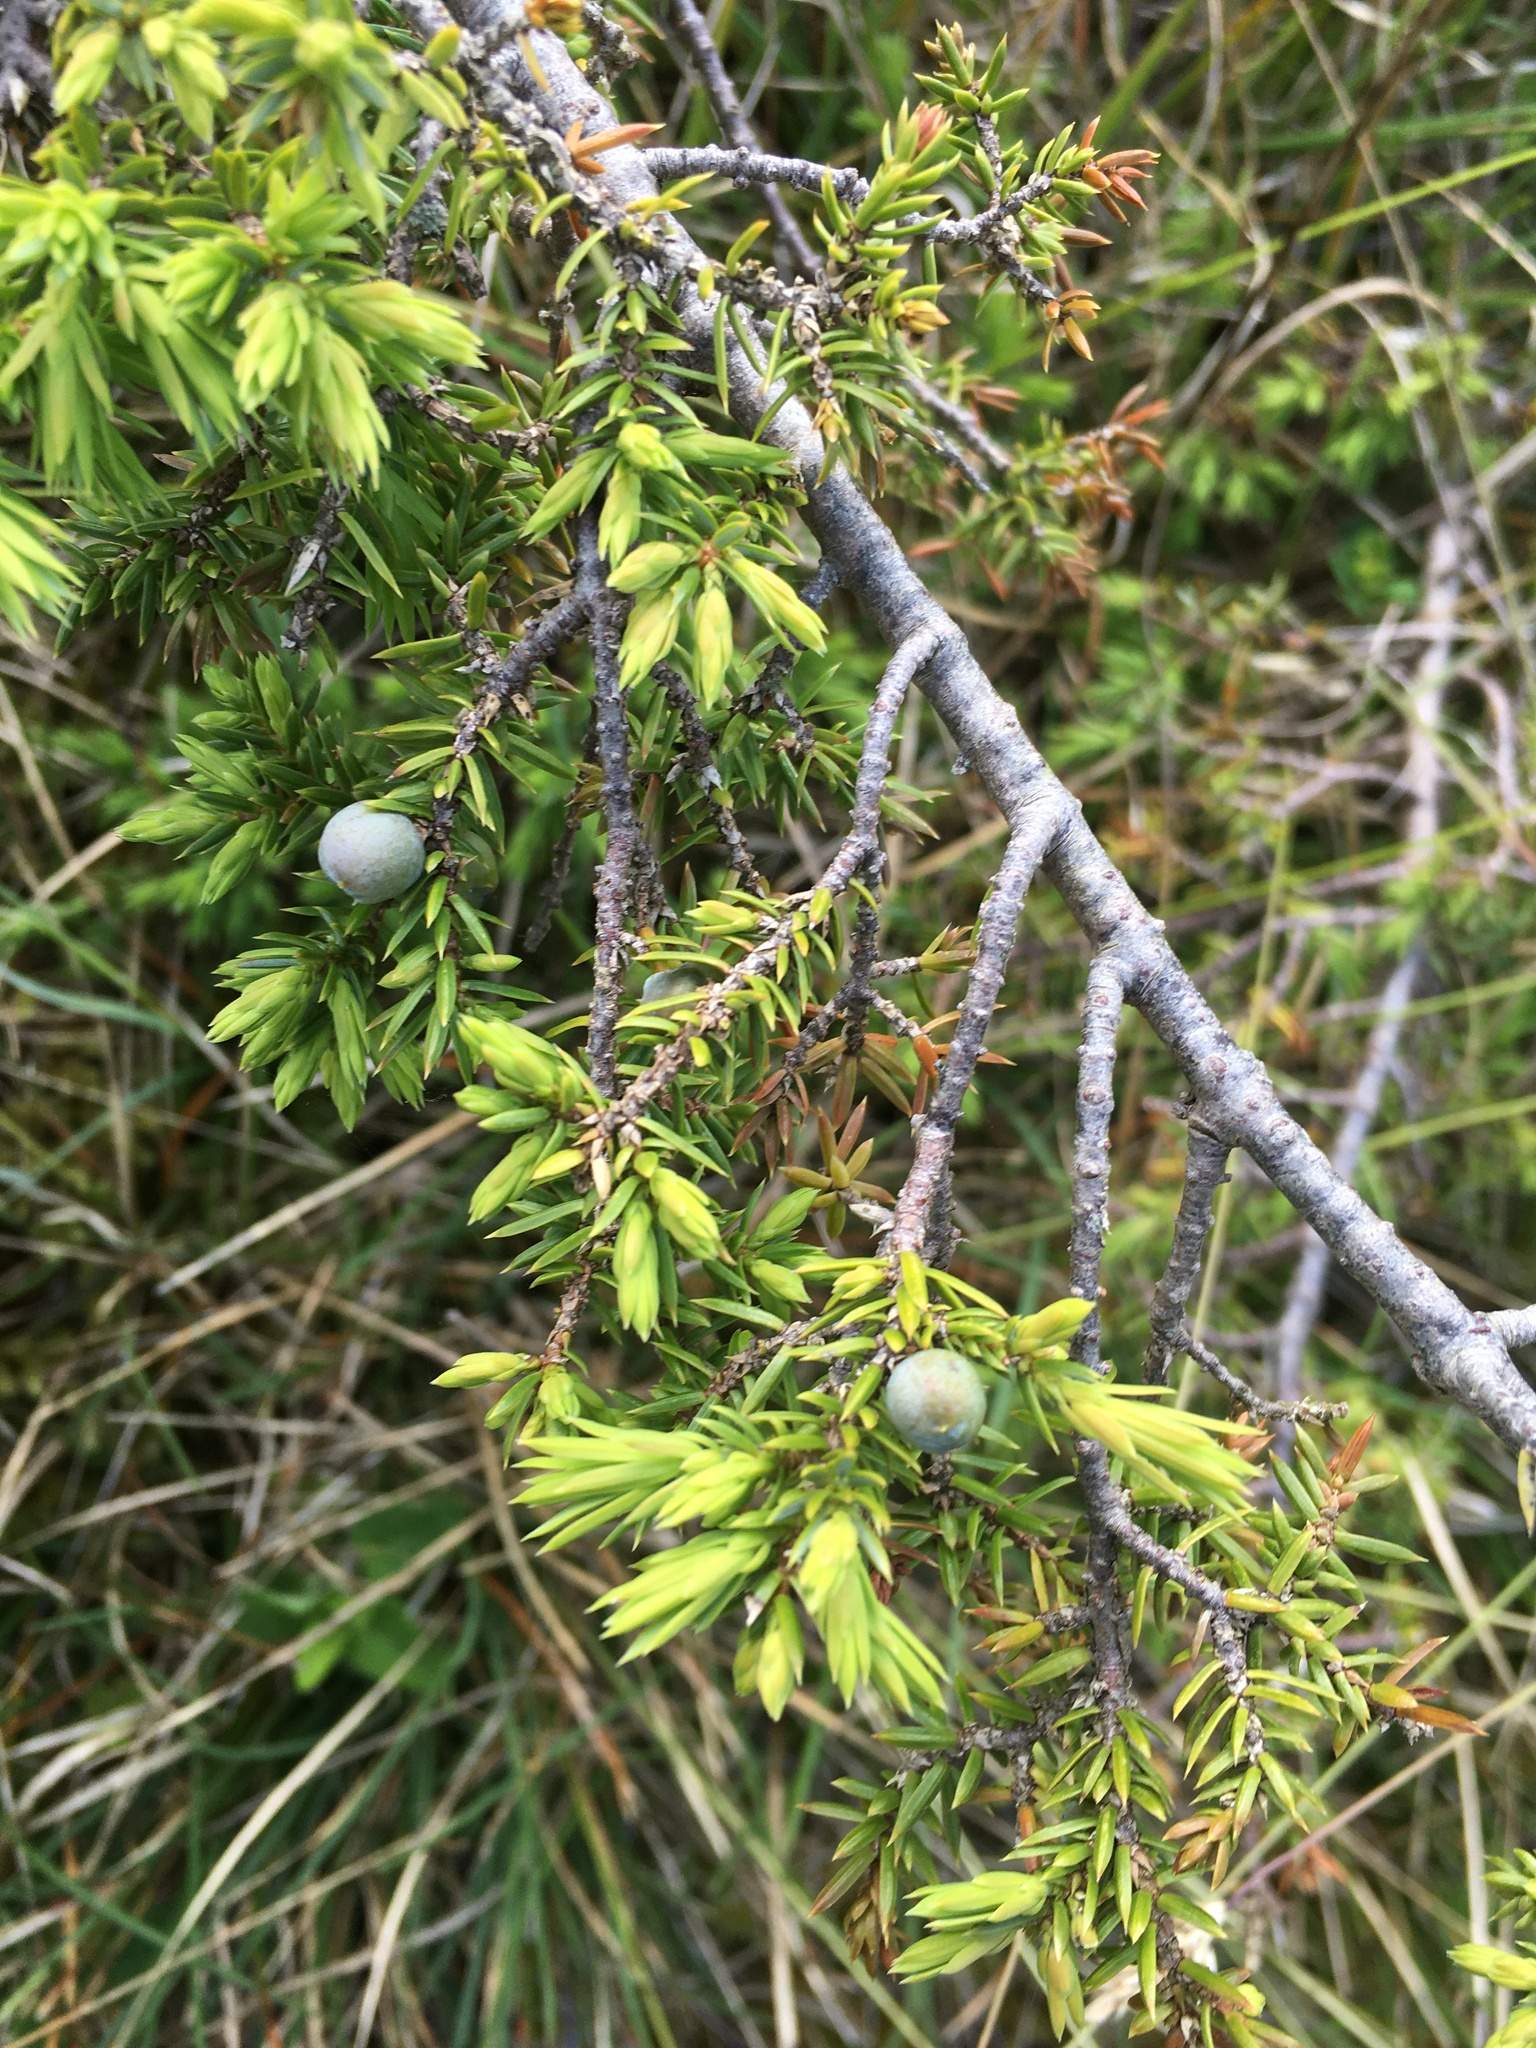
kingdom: Plantae
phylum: Tracheophyta
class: Pinopsida
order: Pinales
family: Cupressaceae
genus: Juniperus
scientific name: Juniperus communis
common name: Common juniper
